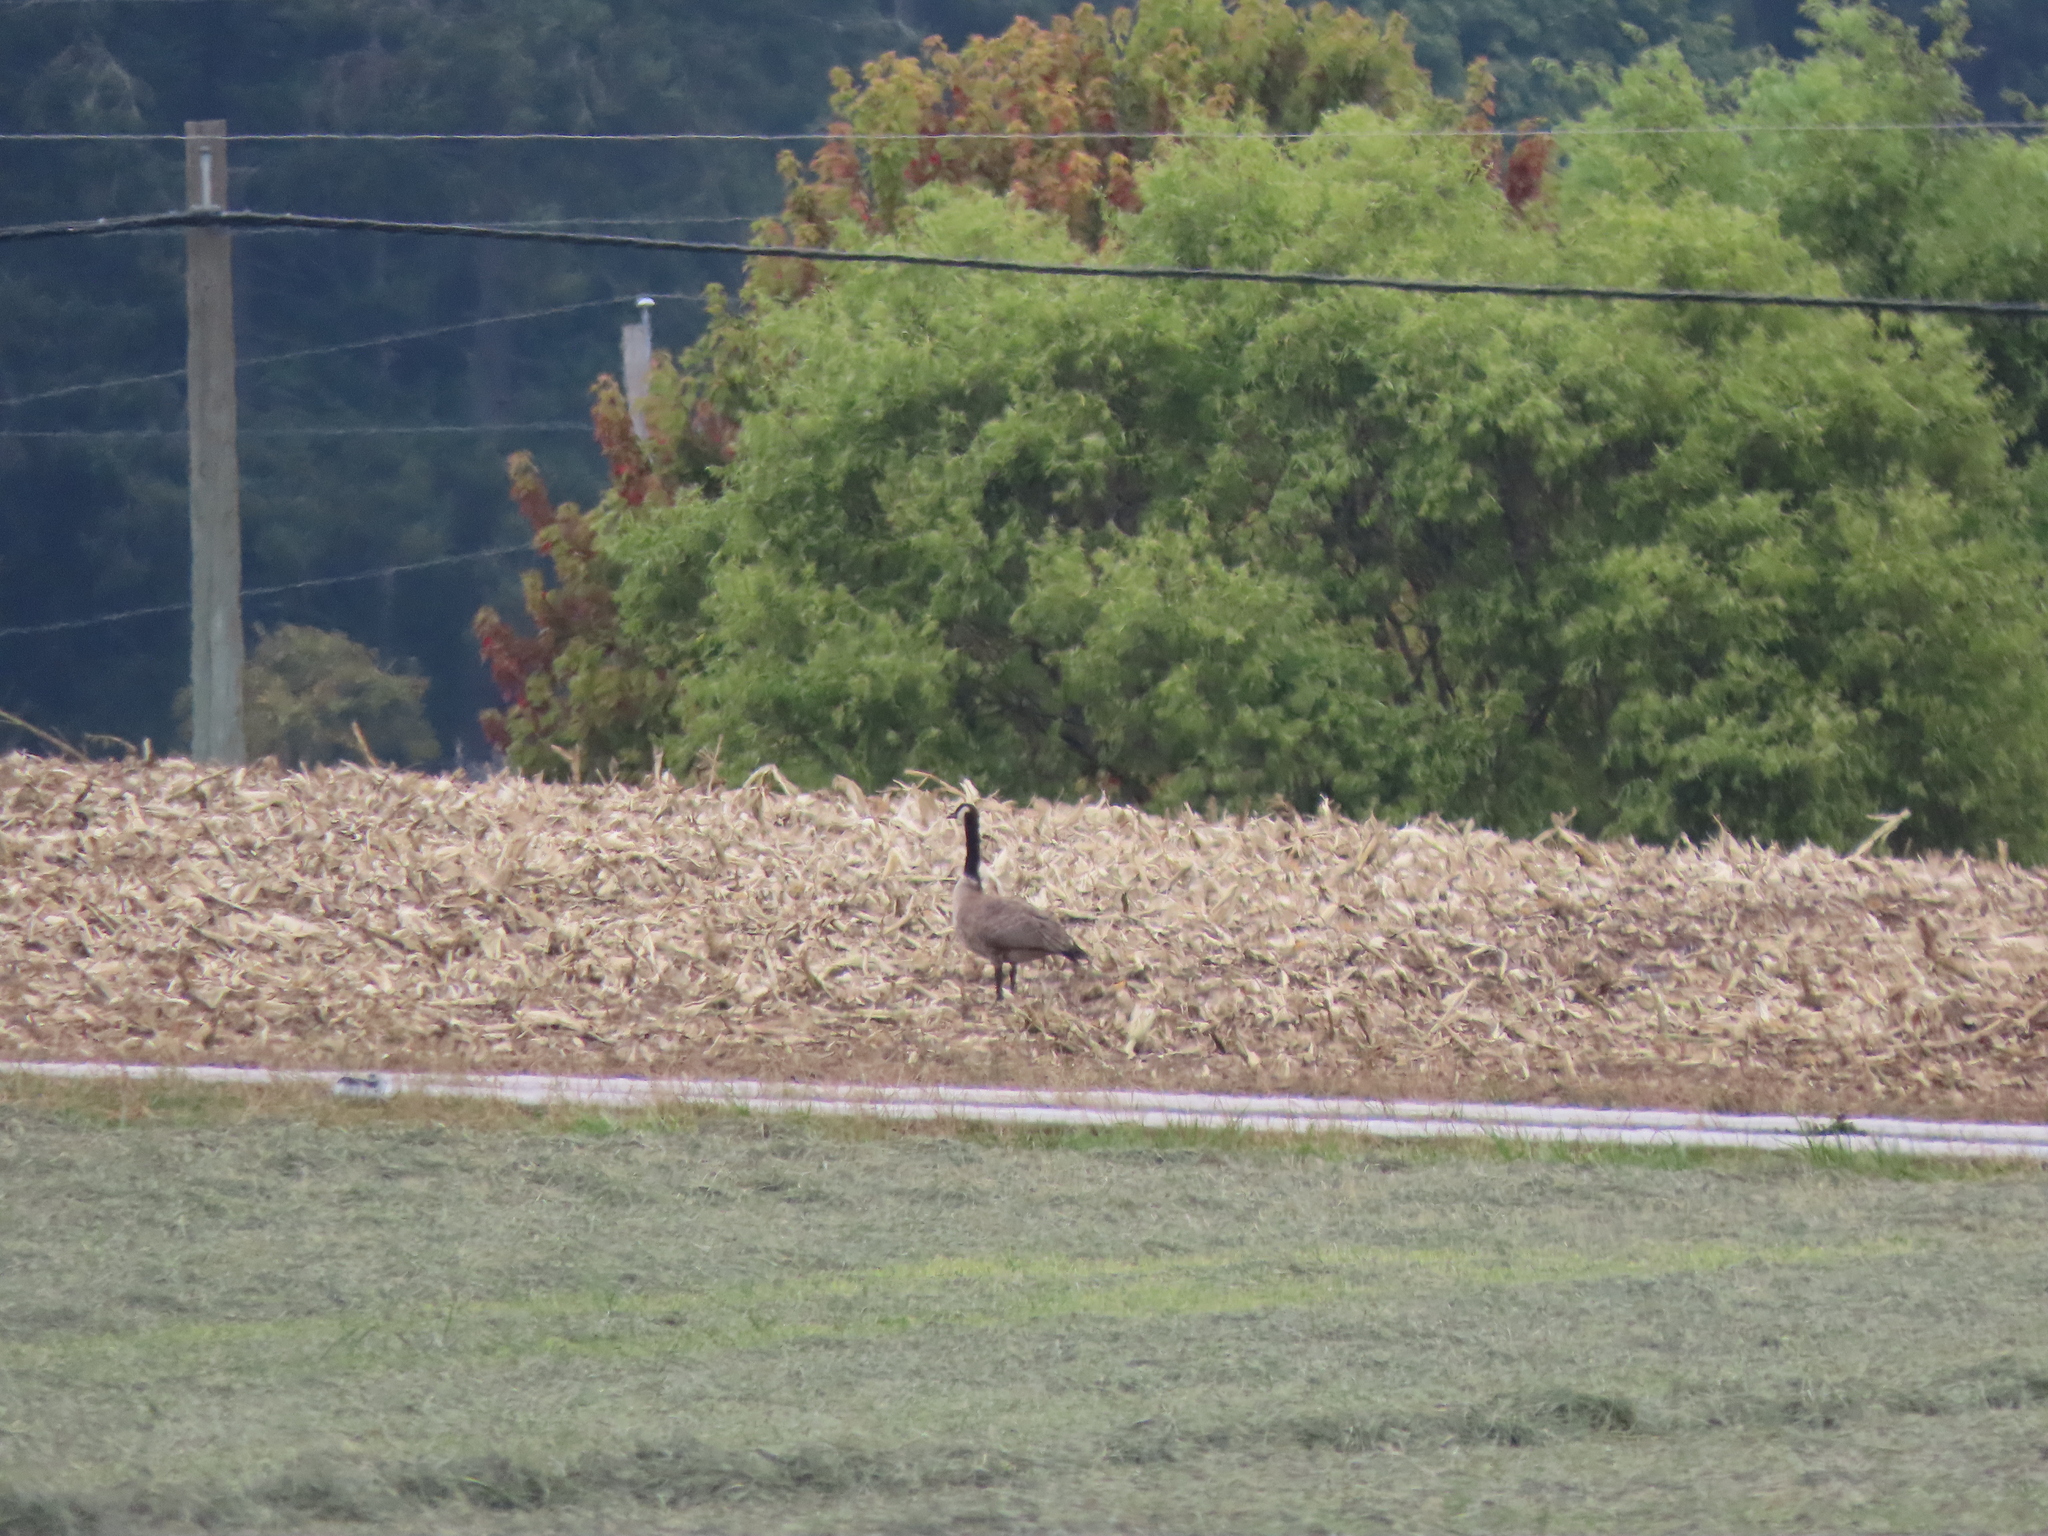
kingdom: Animalia
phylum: Chordata
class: Aves
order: Anseriformes
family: Anatidae
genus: Branta
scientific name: Branta canadensis
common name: Canada goose
